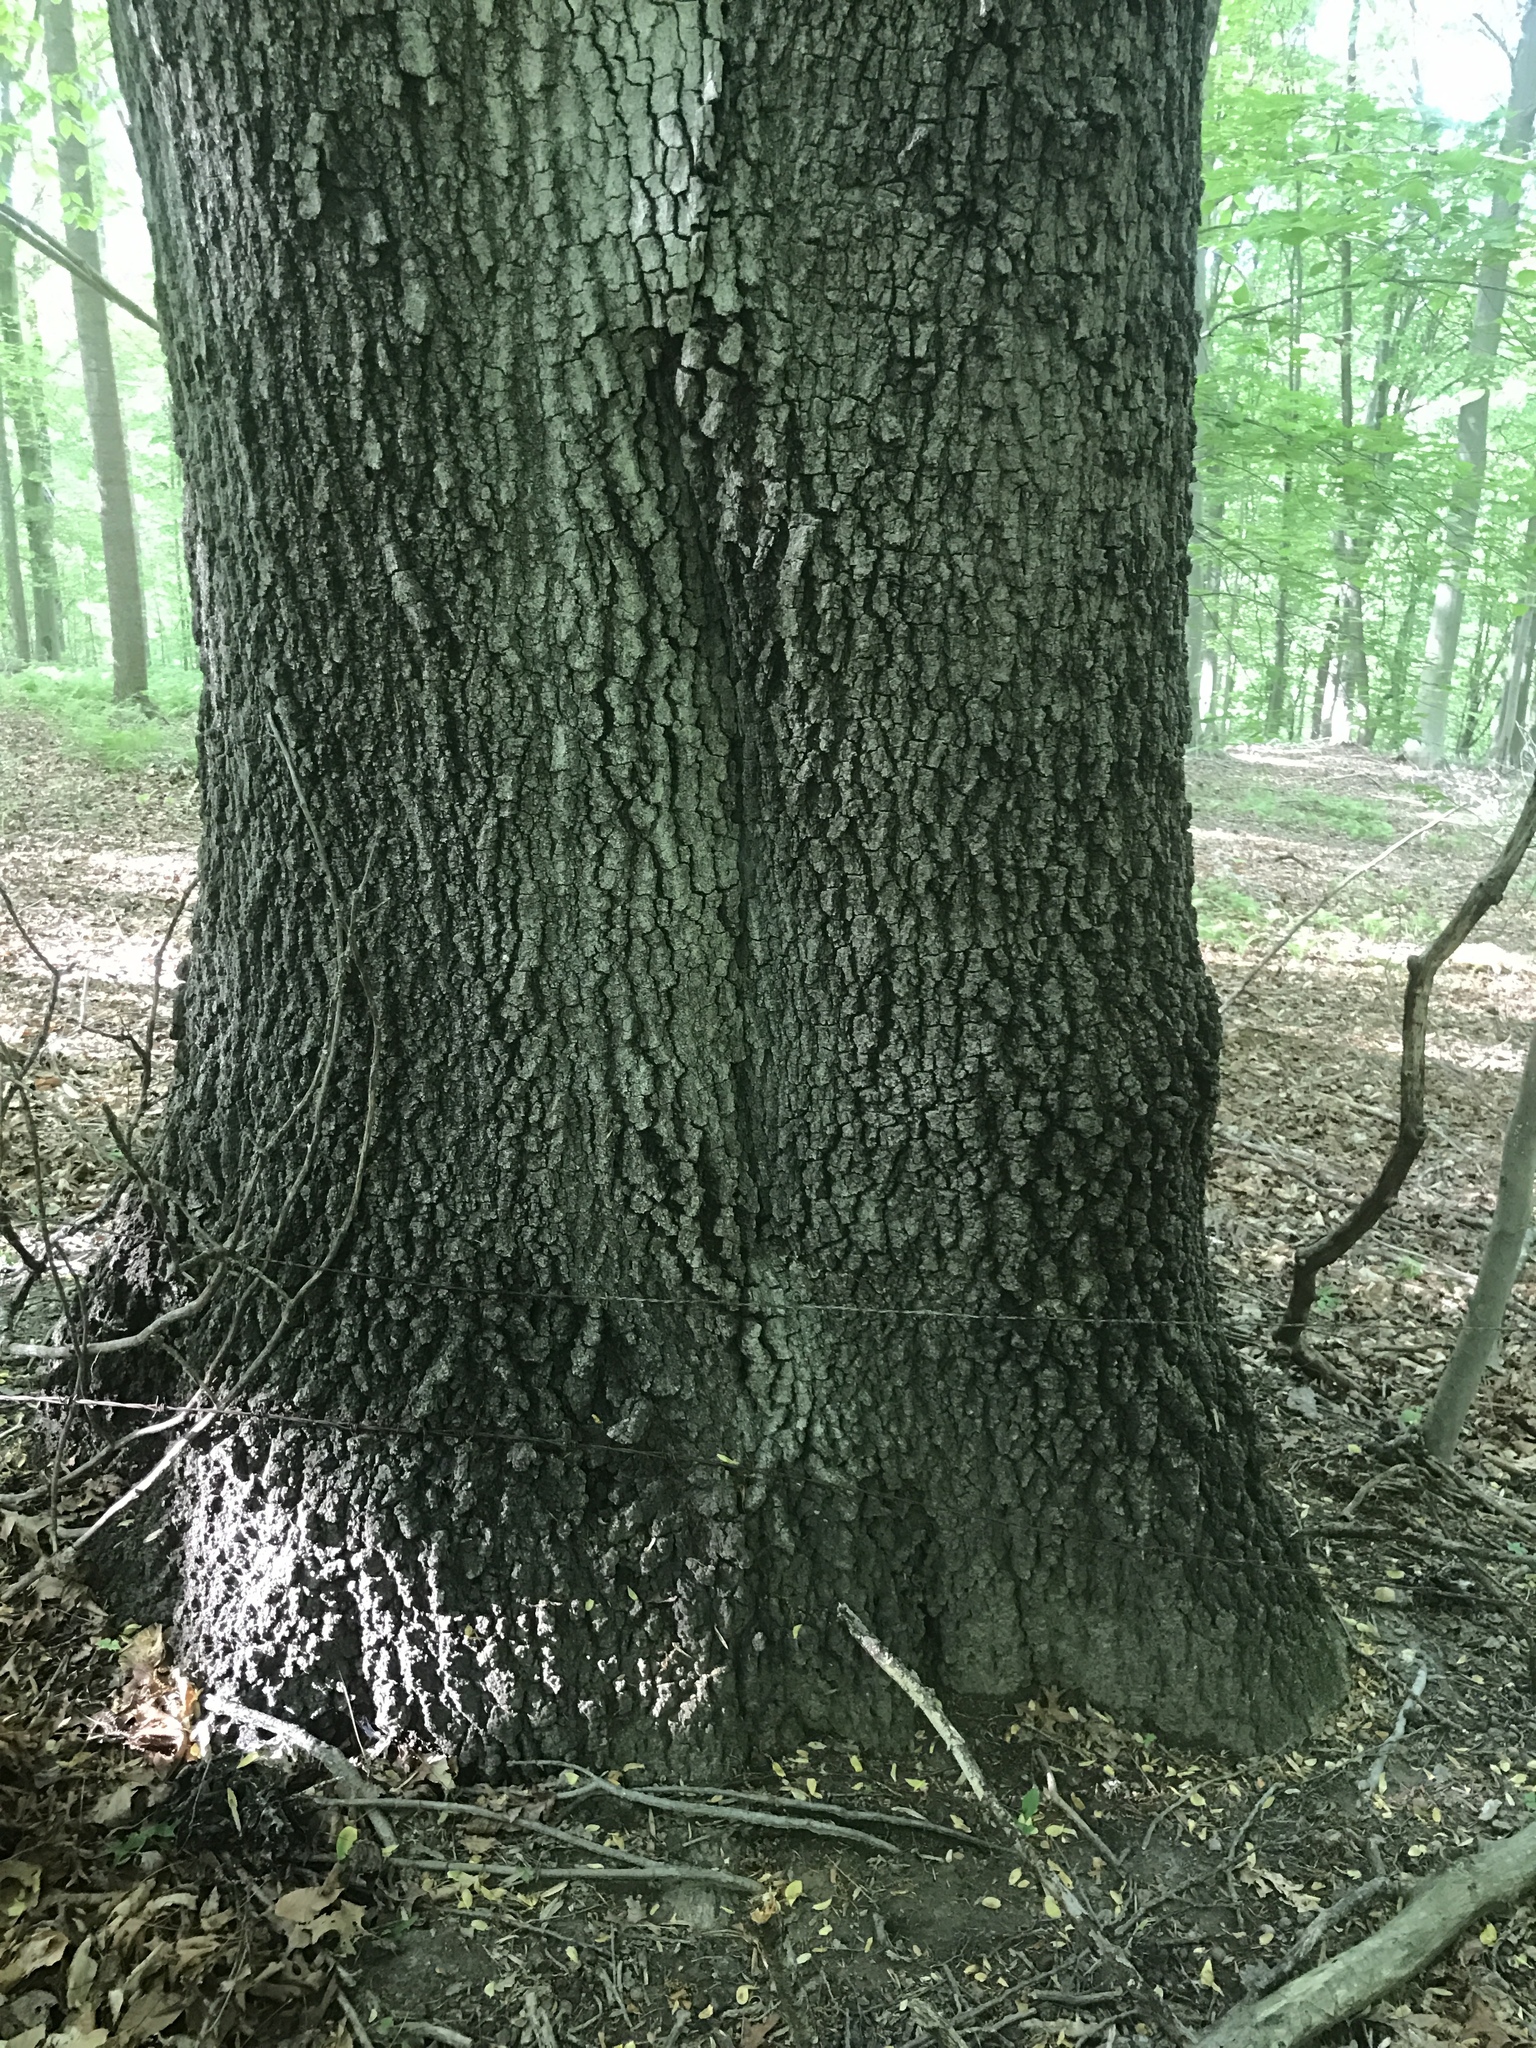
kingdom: Plantae
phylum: Tracheophyta
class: Magnoliopsida
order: Fagales
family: Fagaceae
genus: Quercus
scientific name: Quercus coccinea
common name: Scarlet oak
